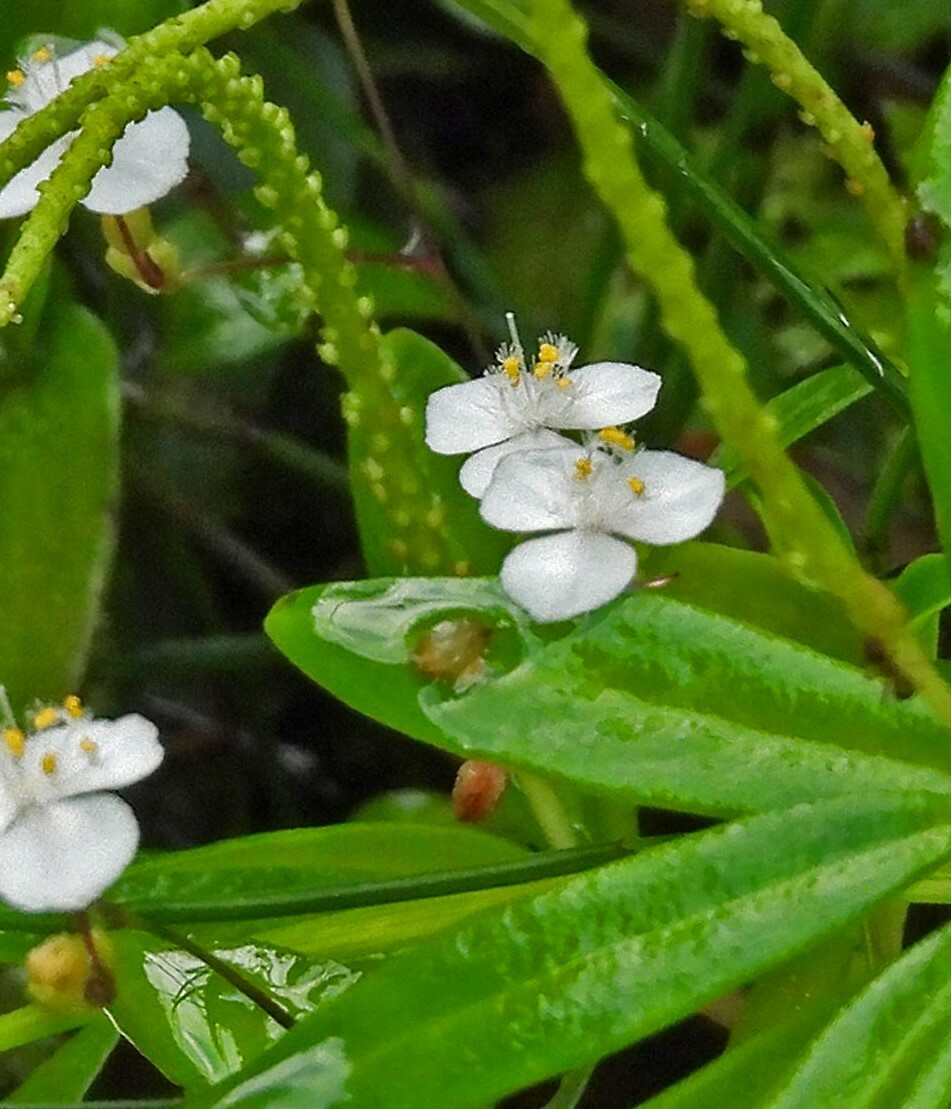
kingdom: Plantae
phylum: Tracheophyta
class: Liliopsida
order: Commelinales
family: Commelinaceae
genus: Gibasis
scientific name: Gibasis geniculata
